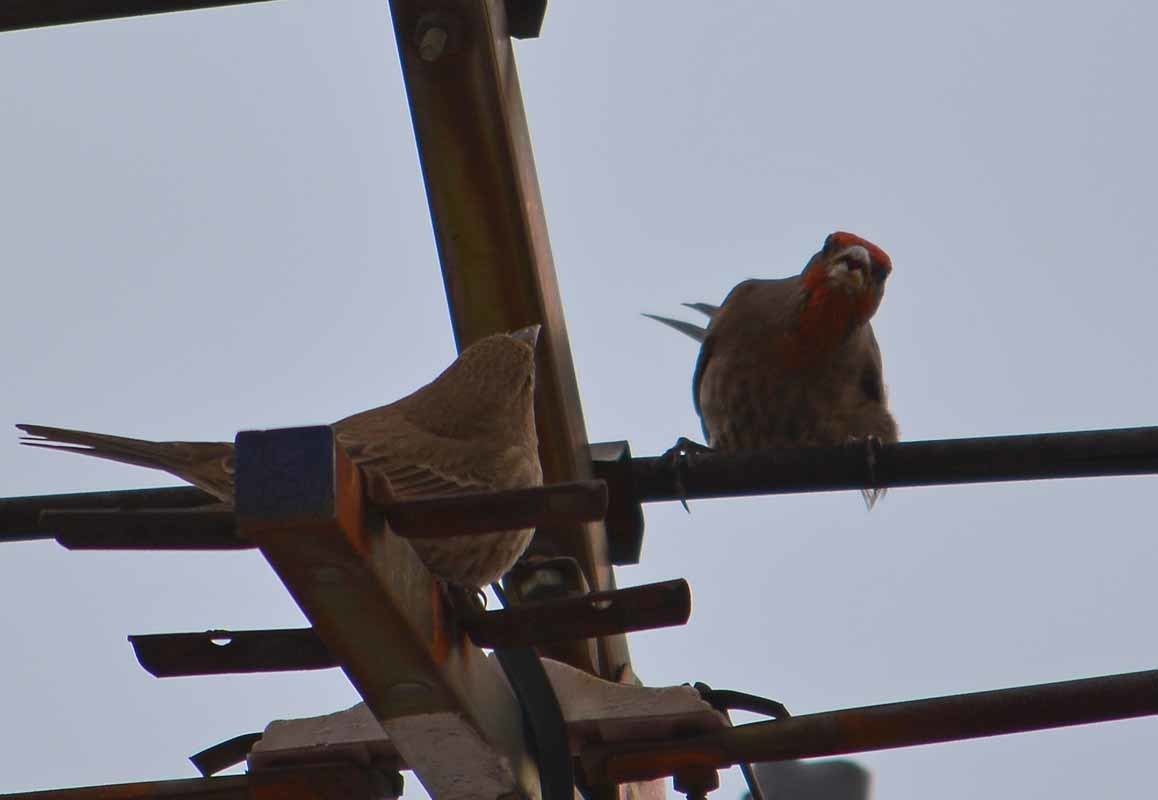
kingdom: Animalia
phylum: Chordata
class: Aves
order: Passeriformes
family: Fringillidae
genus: Haemorhous
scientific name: Haemorhous mexicanus
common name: House finch
